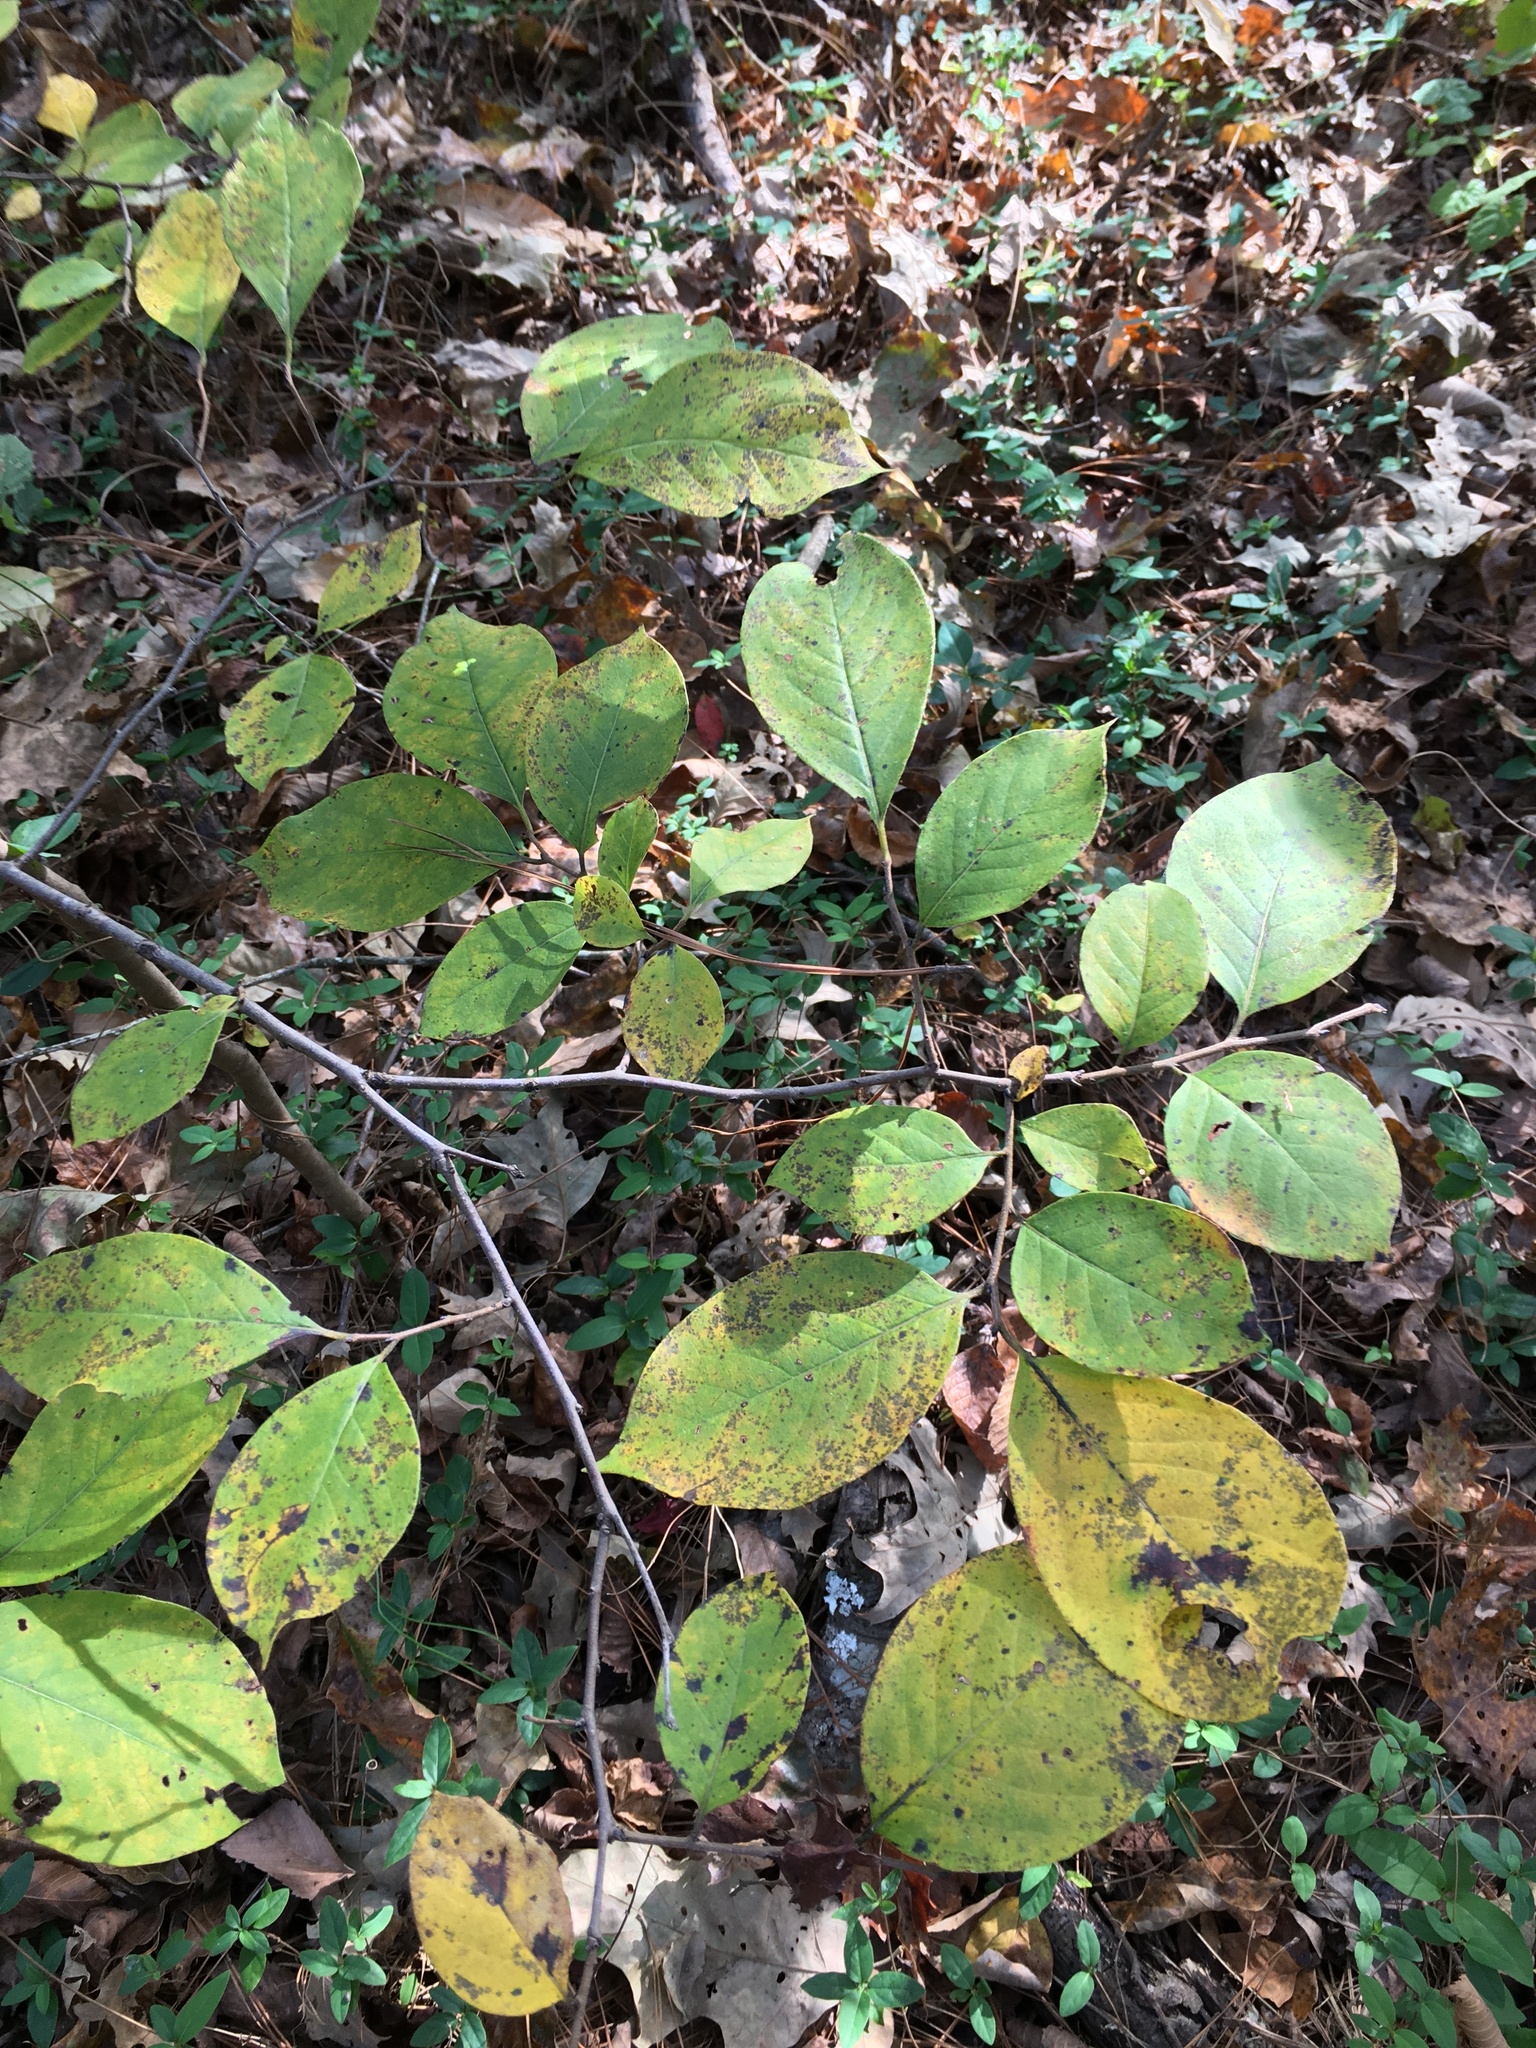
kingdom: Plantae
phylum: Tracheophyta
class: Magnoliopsida
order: Laurales
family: Lauraceae
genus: Lindera
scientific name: Lindera benzoin
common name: Spicebush
